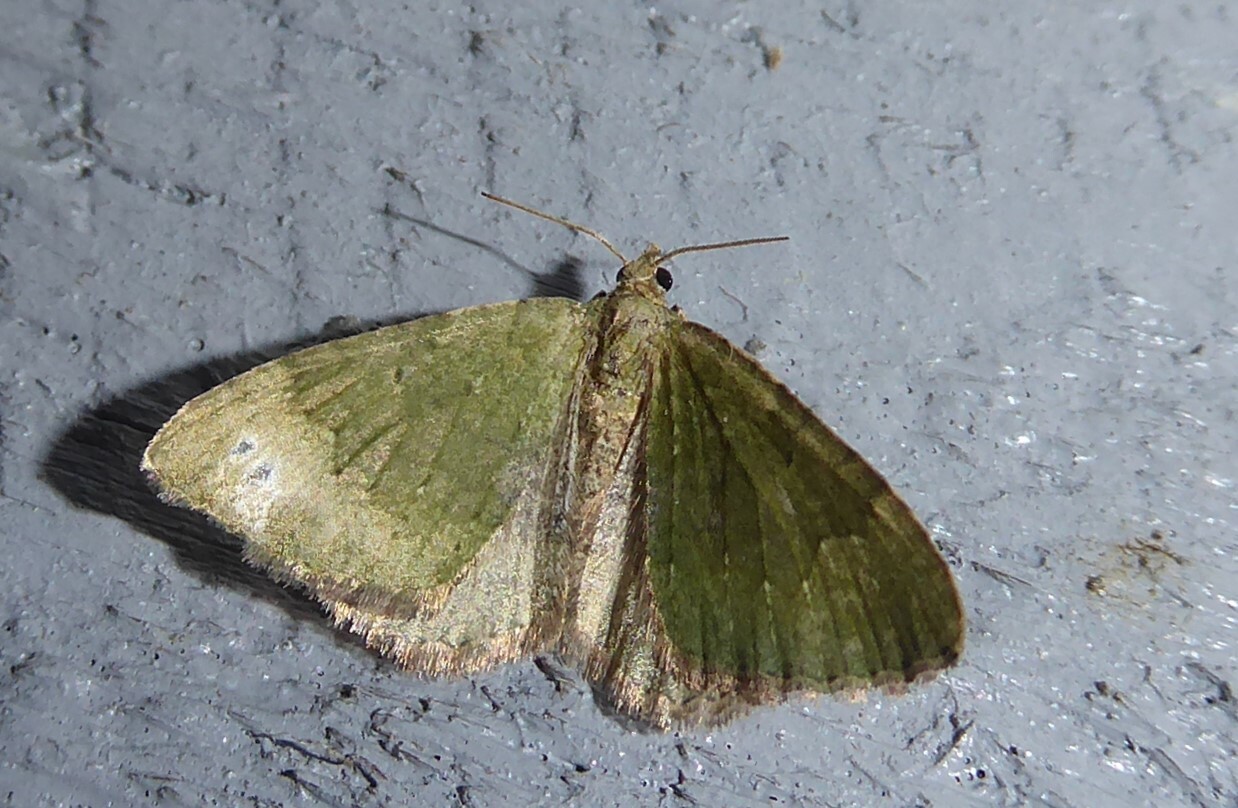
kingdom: Animalia
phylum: Arthropoda
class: Insecta
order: Lepidoptera
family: Geometridae
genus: Epyaxa
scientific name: Epyaxa rosearia
